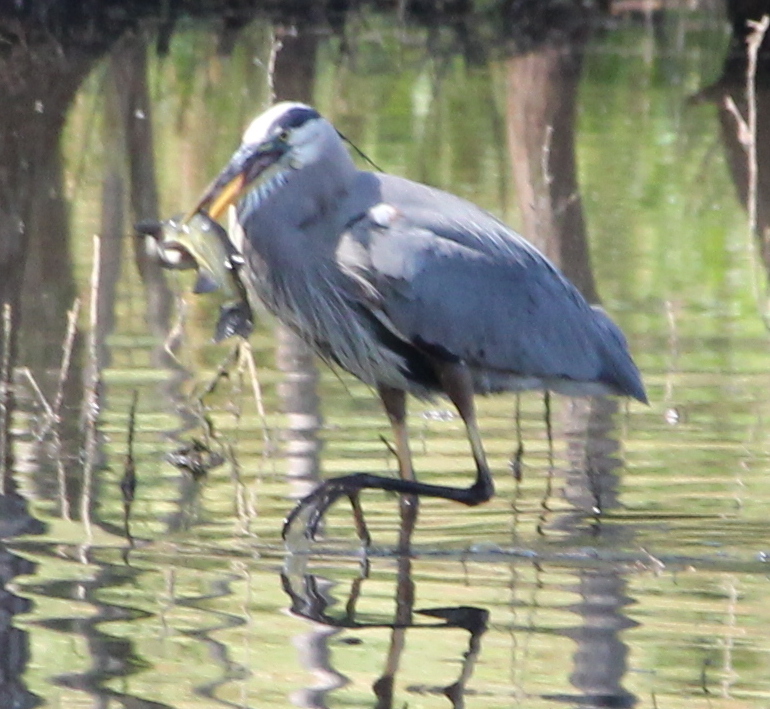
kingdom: Animalia
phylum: Chordata
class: Aves
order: Pelecaniformes
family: Ardeidae
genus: Ardea
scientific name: Ardea herodias
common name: Great blue heron
